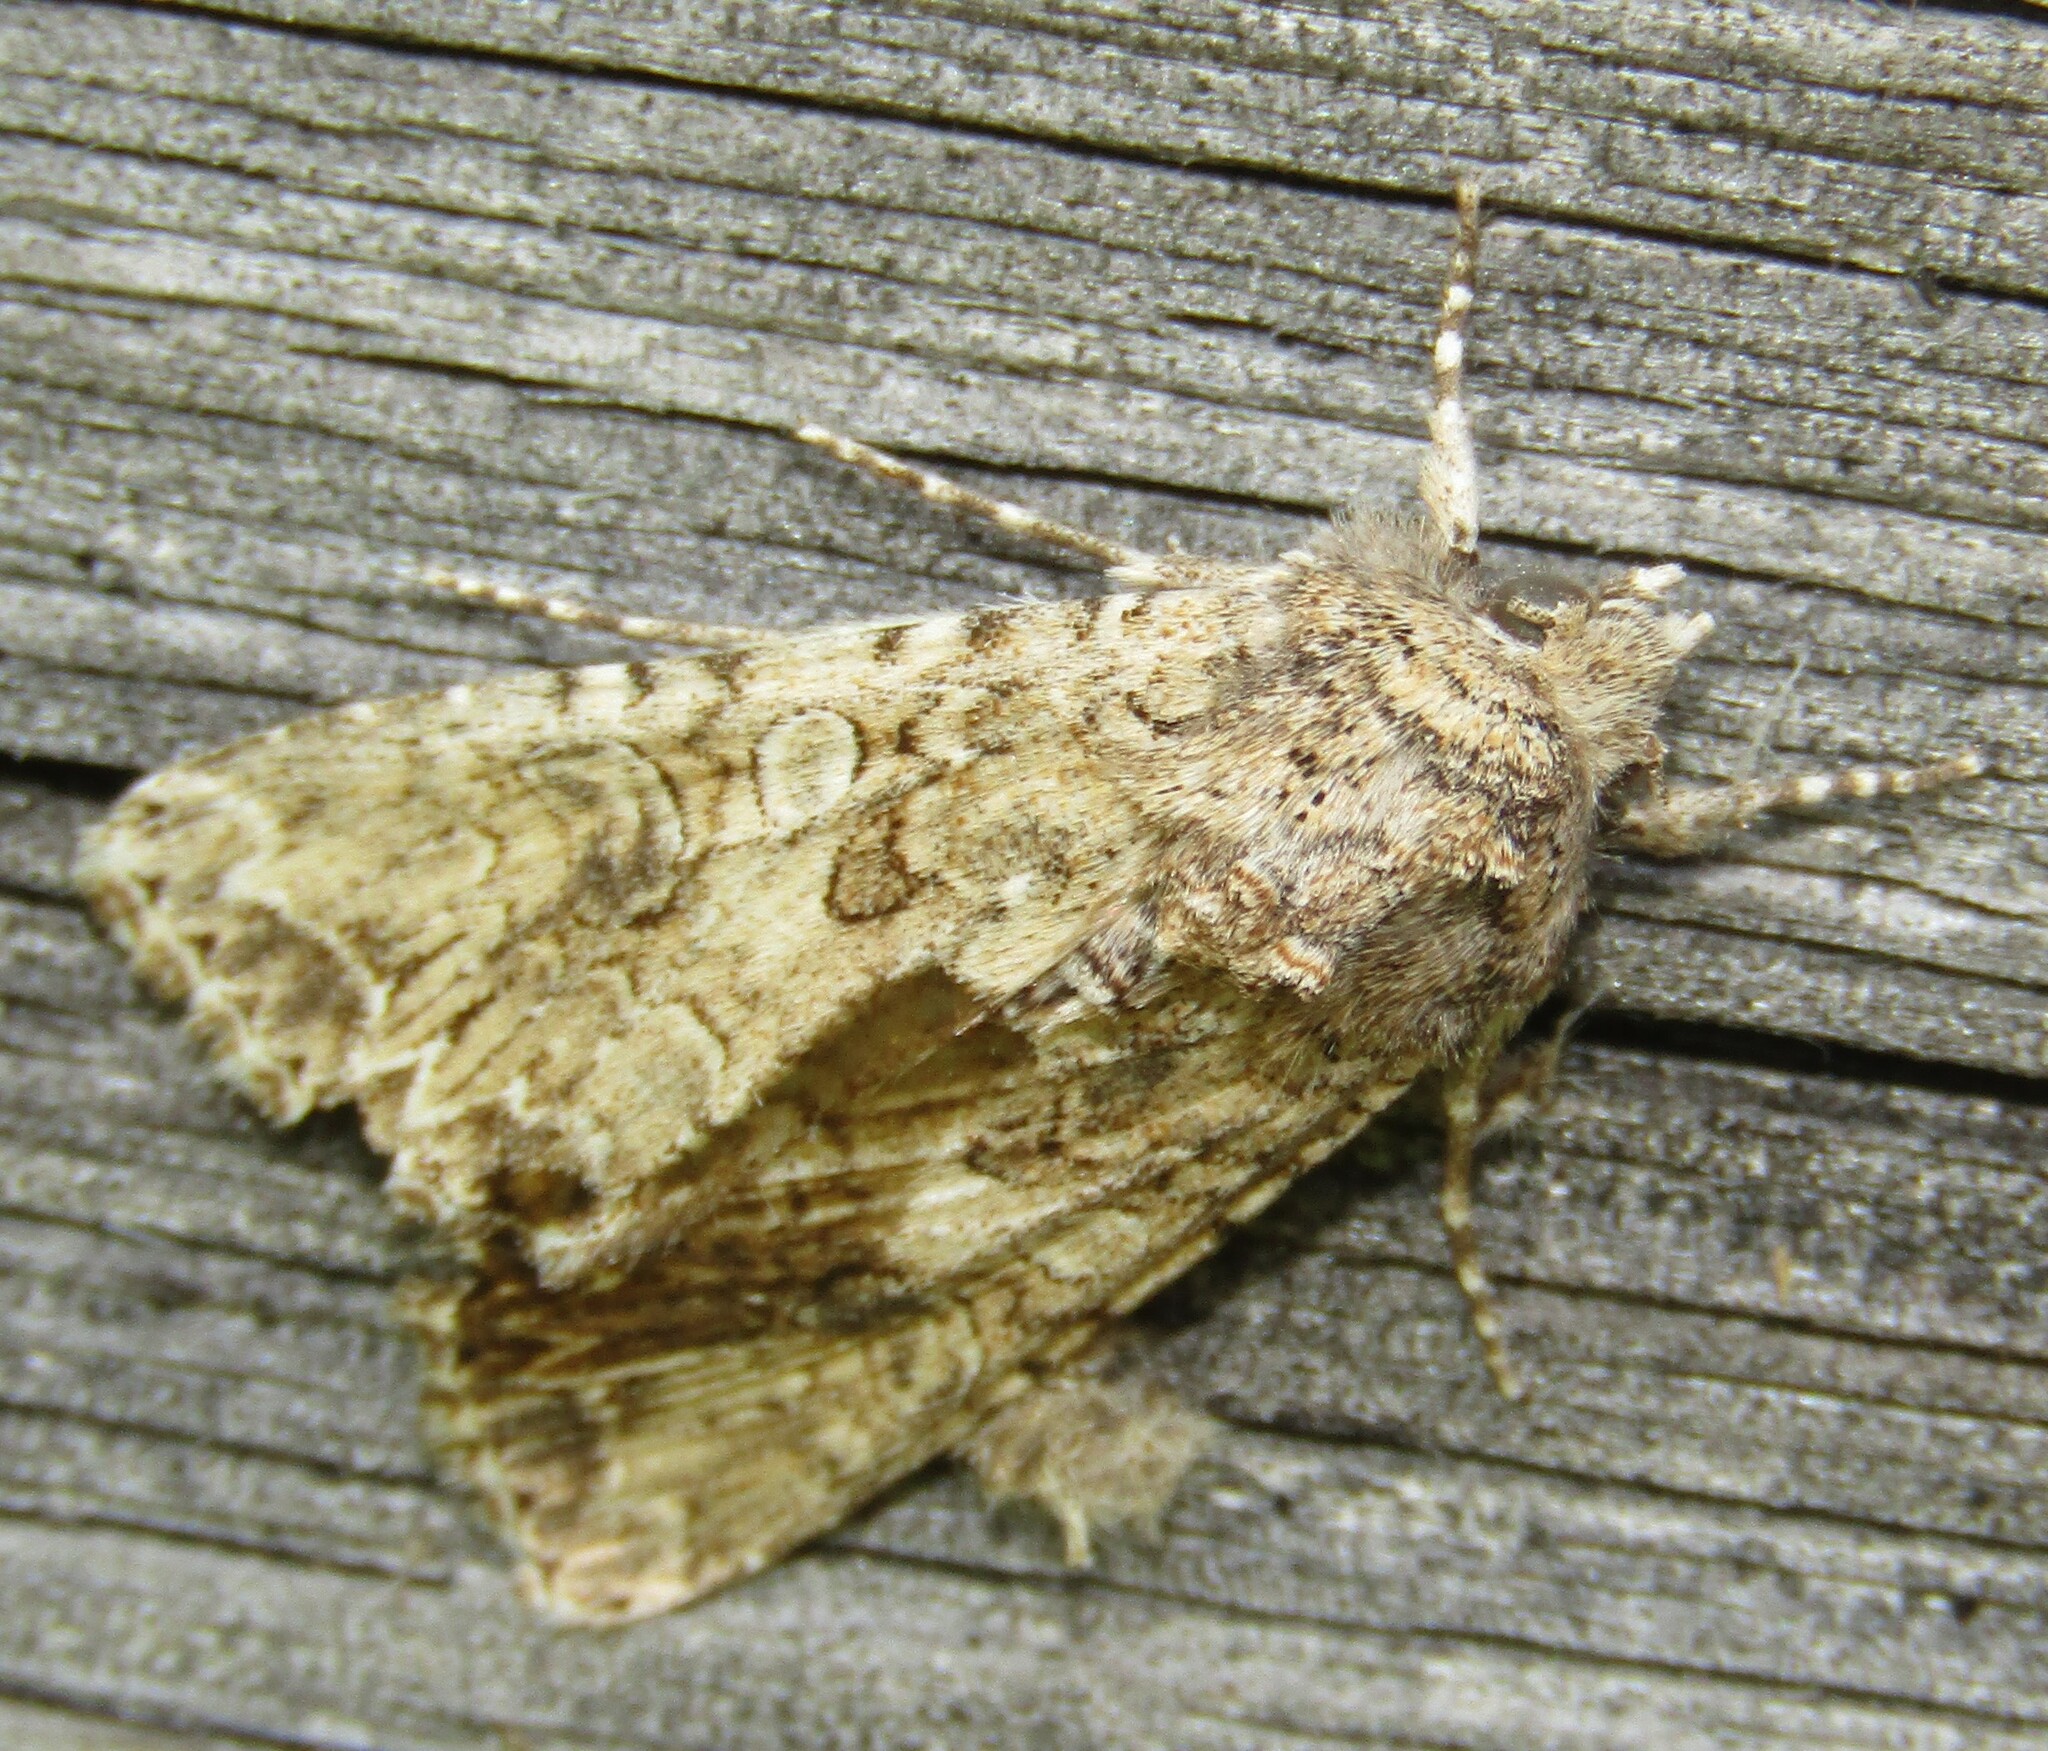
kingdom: Animalia
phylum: Arthropoda
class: Insecta
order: Lepidoptera
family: Noctuidae
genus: Anarta
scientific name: Anarta trifolii
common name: Clover cutworm moth
